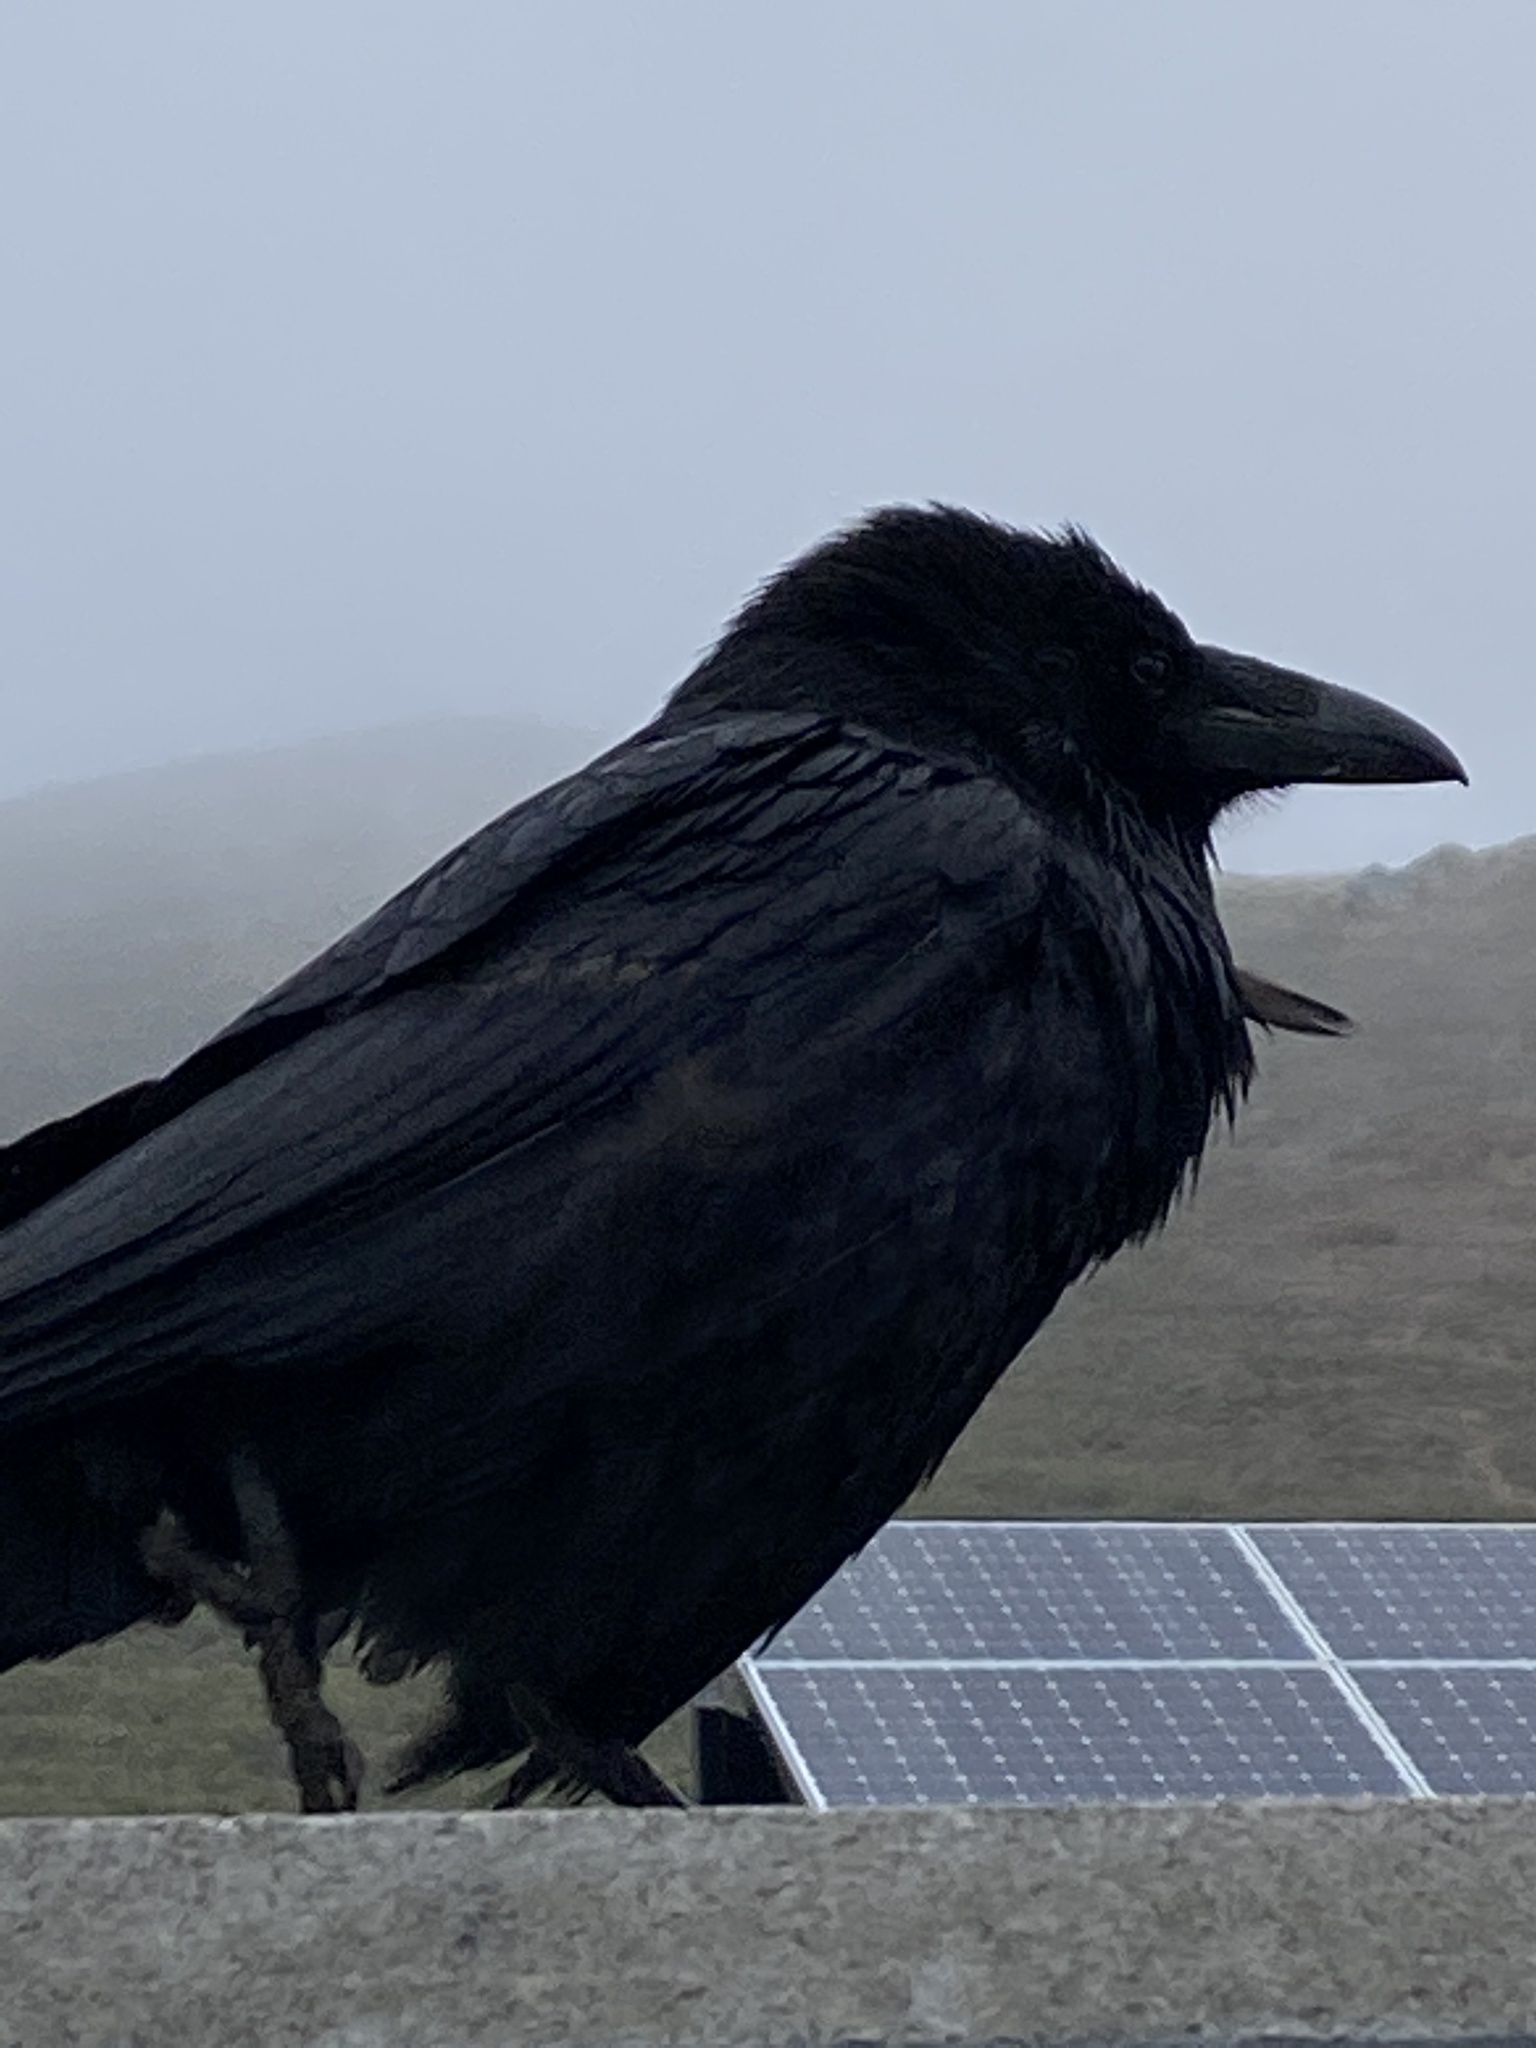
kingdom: Animalia
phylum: Chordata
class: Aves
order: Passeriformes
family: Corvidae
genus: Corvus
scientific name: Corvus corax
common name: Common raven
